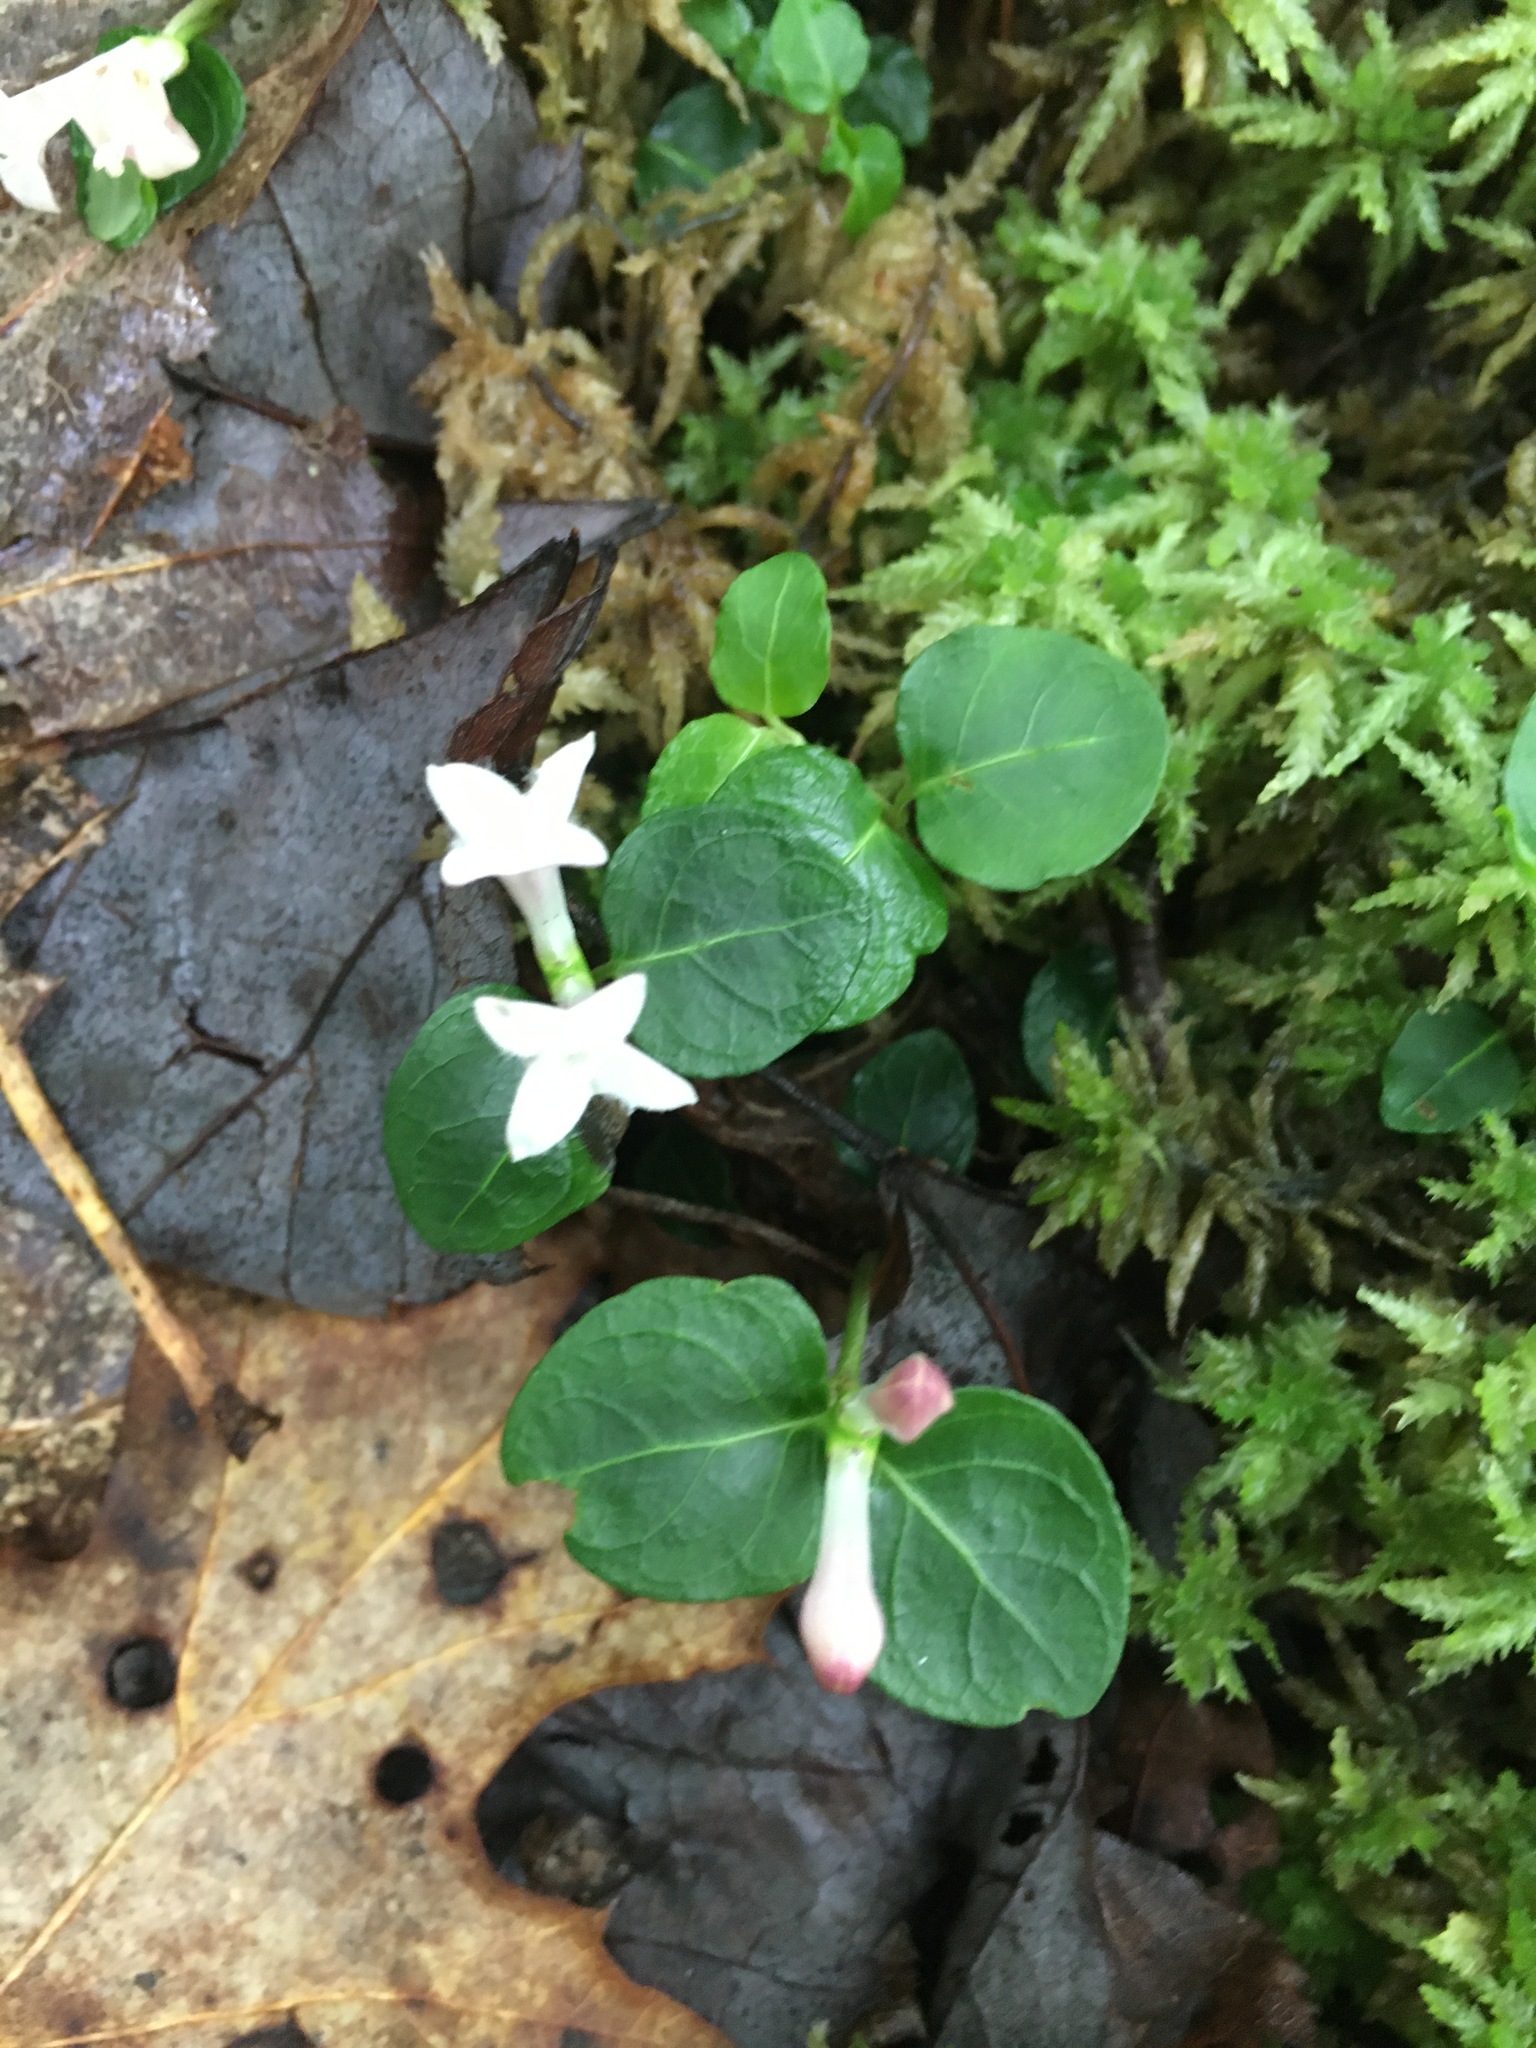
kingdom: Plantae
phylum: Tracheophyta
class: Magnoliopsida
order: Gentianales
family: Rubiaceae
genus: Mitchella
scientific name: Mitchella repens
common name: Partridge-berry
